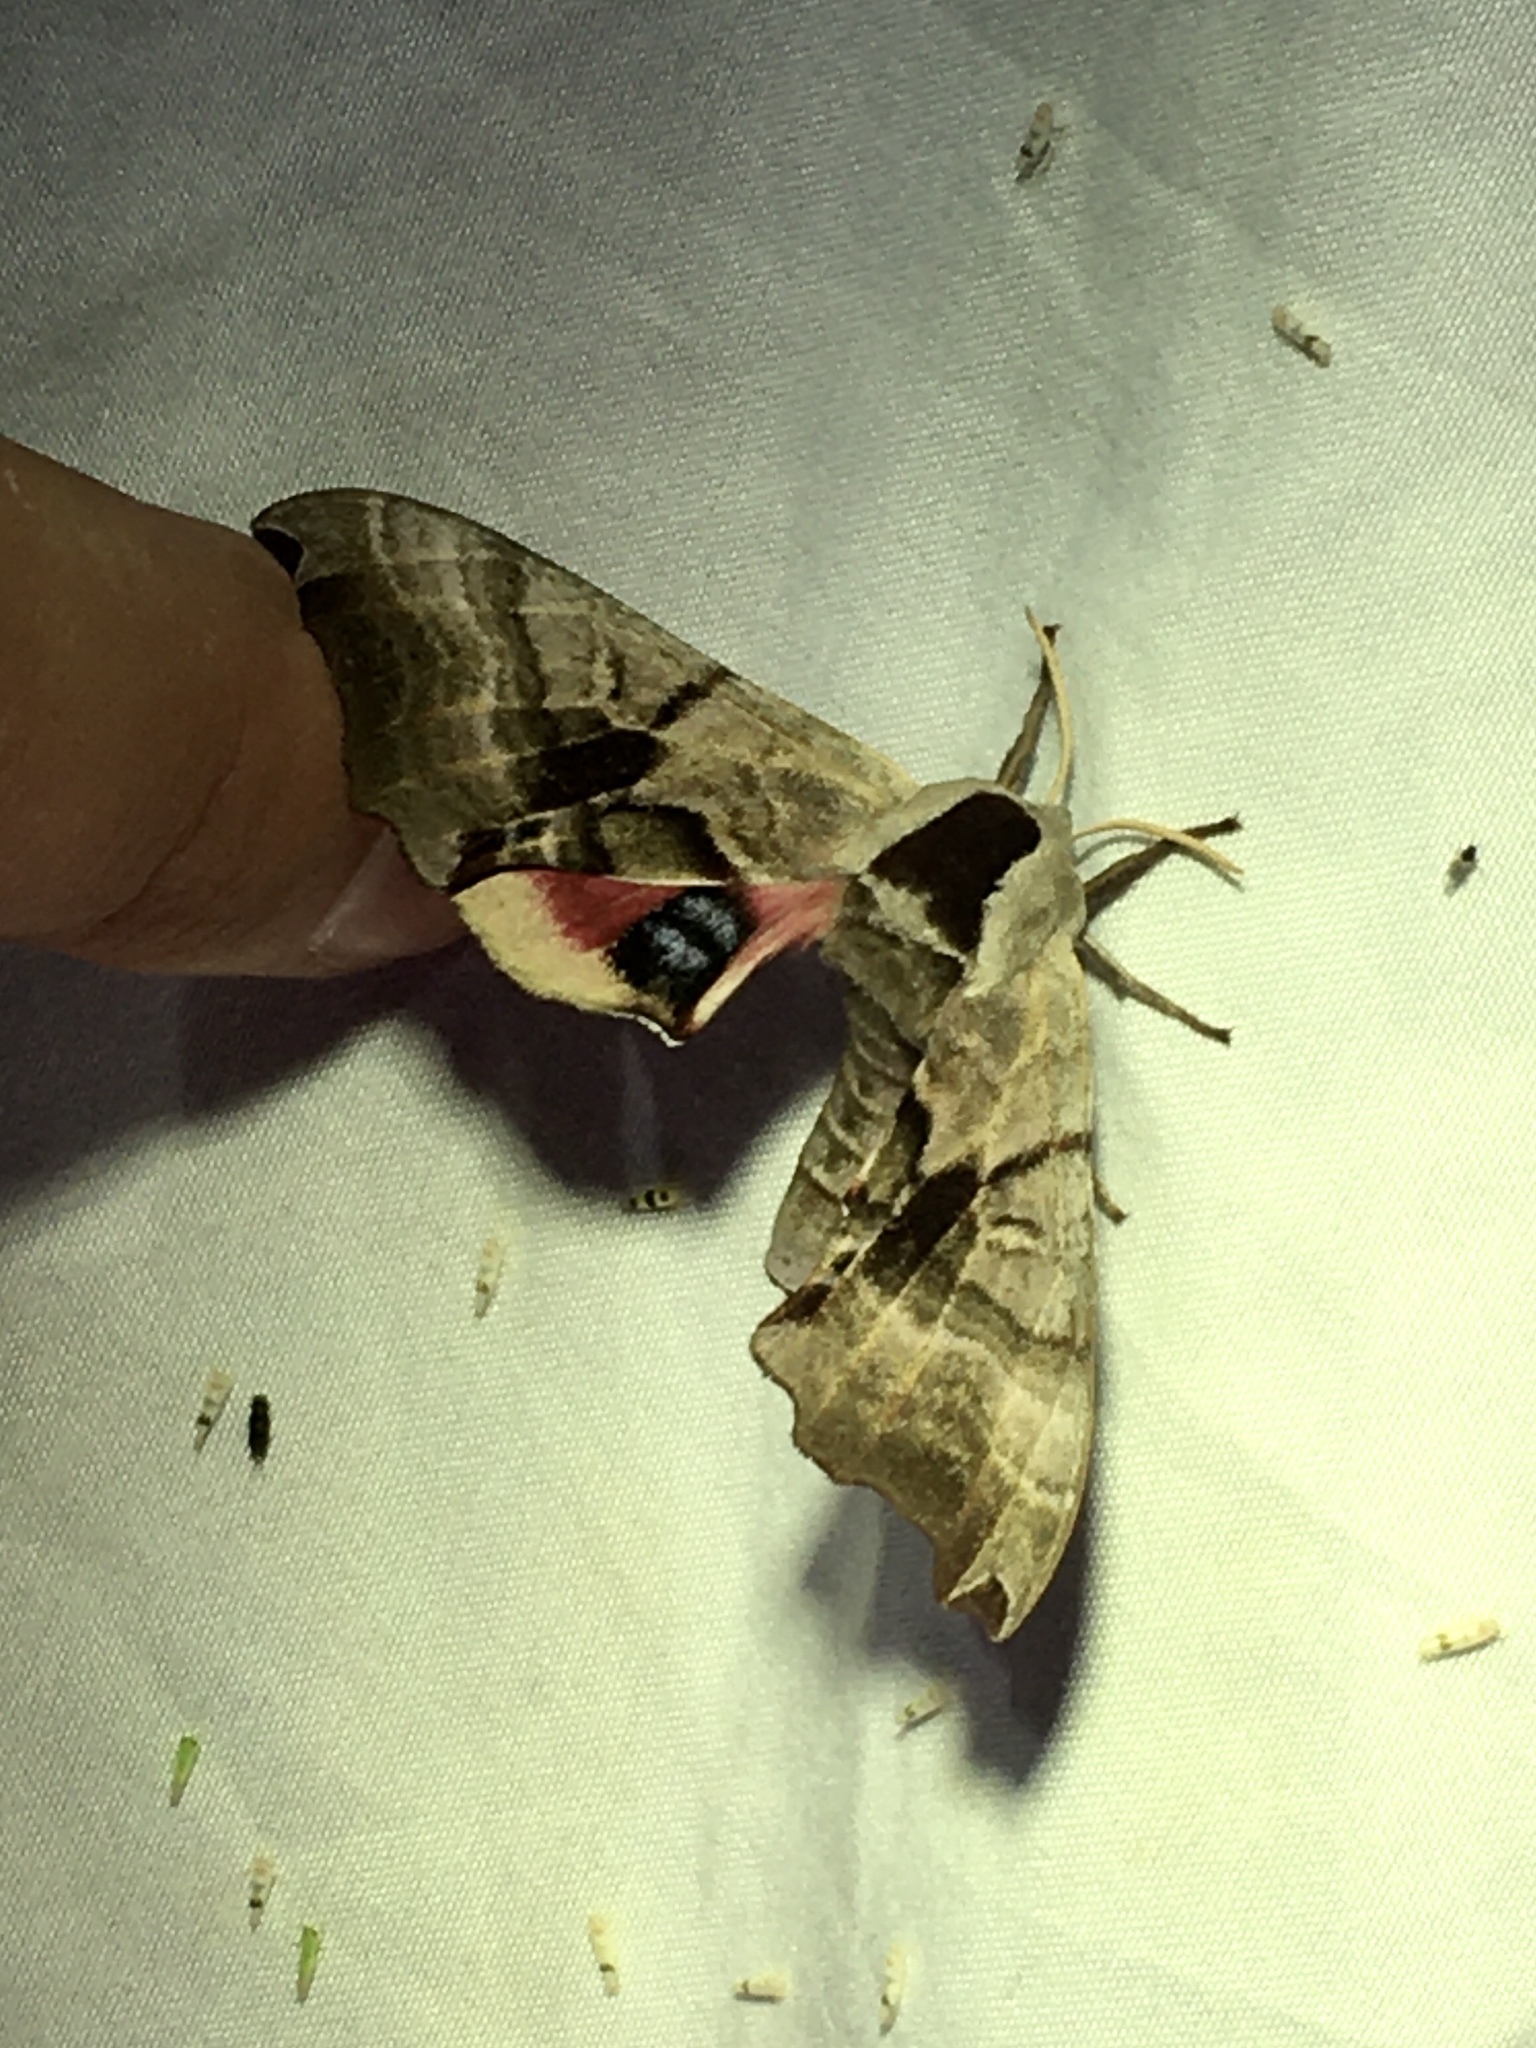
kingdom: Animalia
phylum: Arthropoda
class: Insecta
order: Lepidoptera
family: Sphingidae
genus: Smerinthus
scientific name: Smerinthus jamaicensis
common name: Twin spotted sphinx
